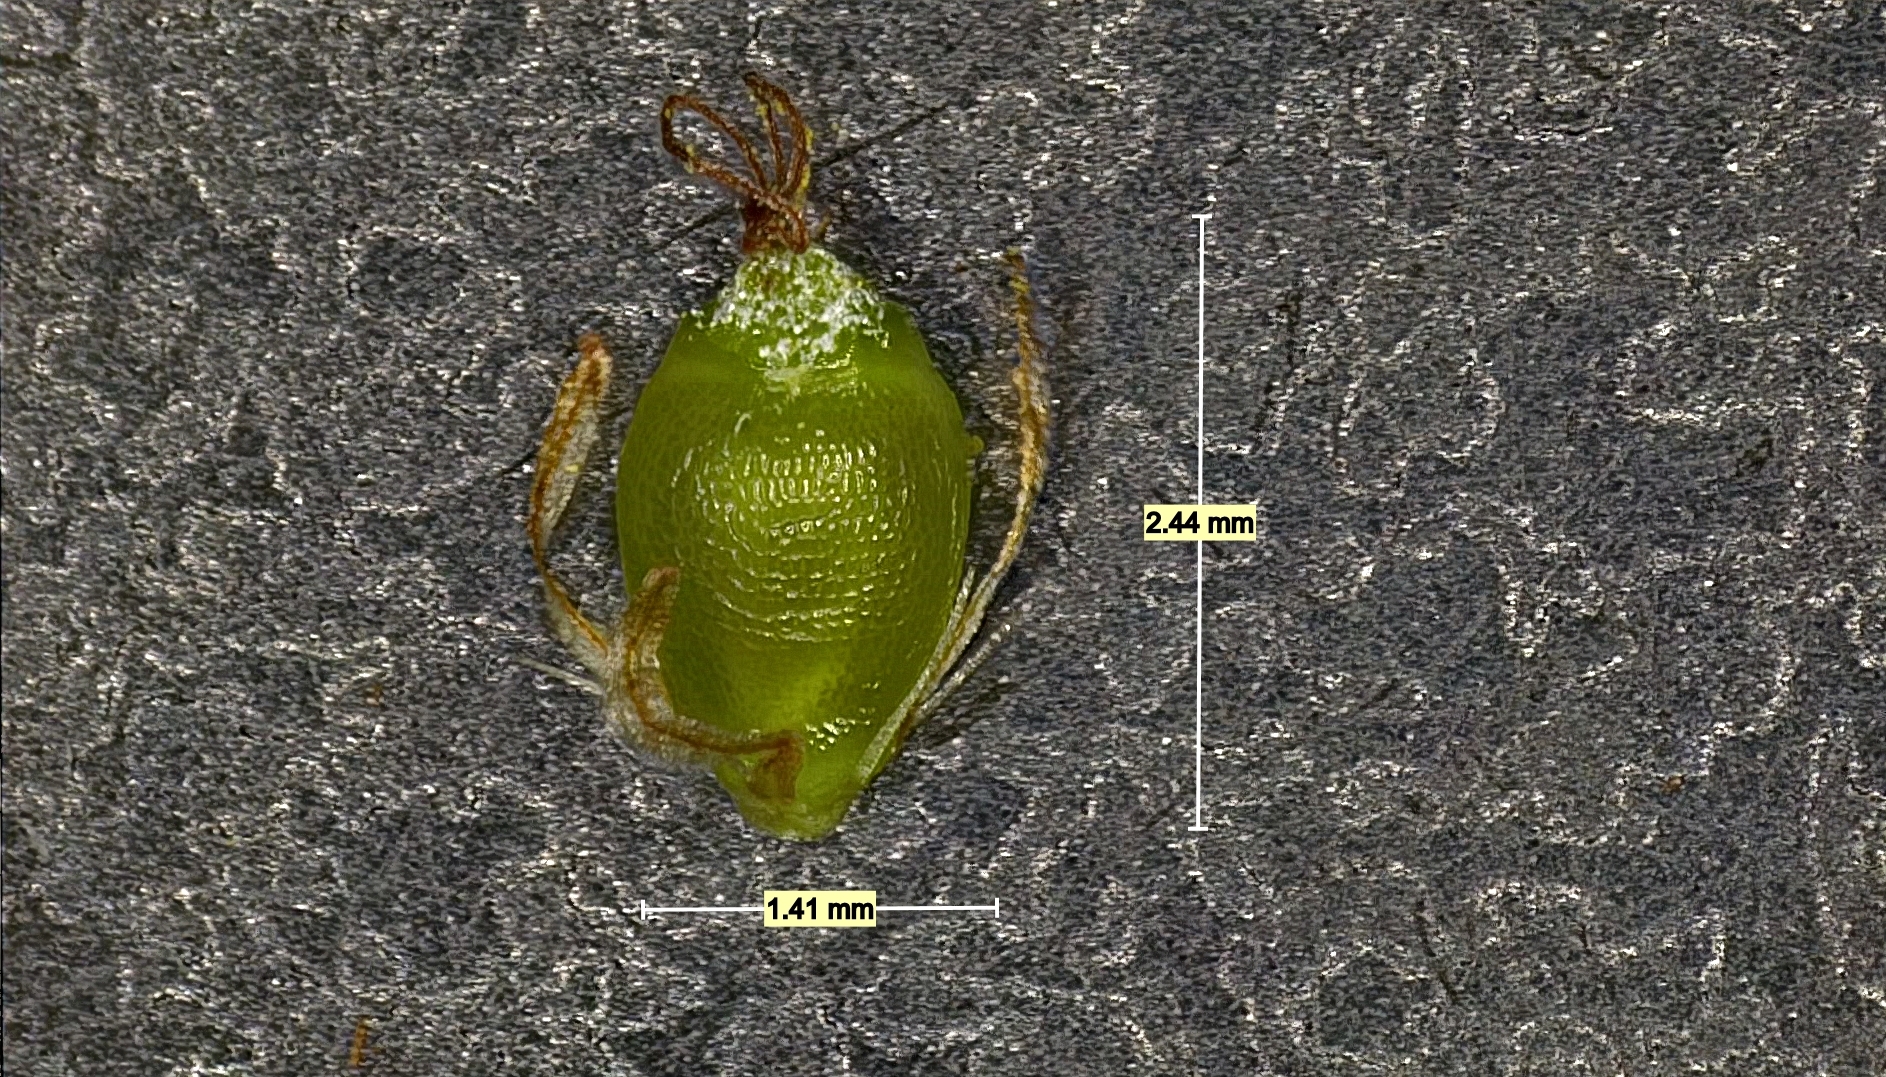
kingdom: Plantae
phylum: Tracheophyta
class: Liliopsida
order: Poales
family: Cyperaceae
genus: Rhynchospora
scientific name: Rhynchospora harveyi
